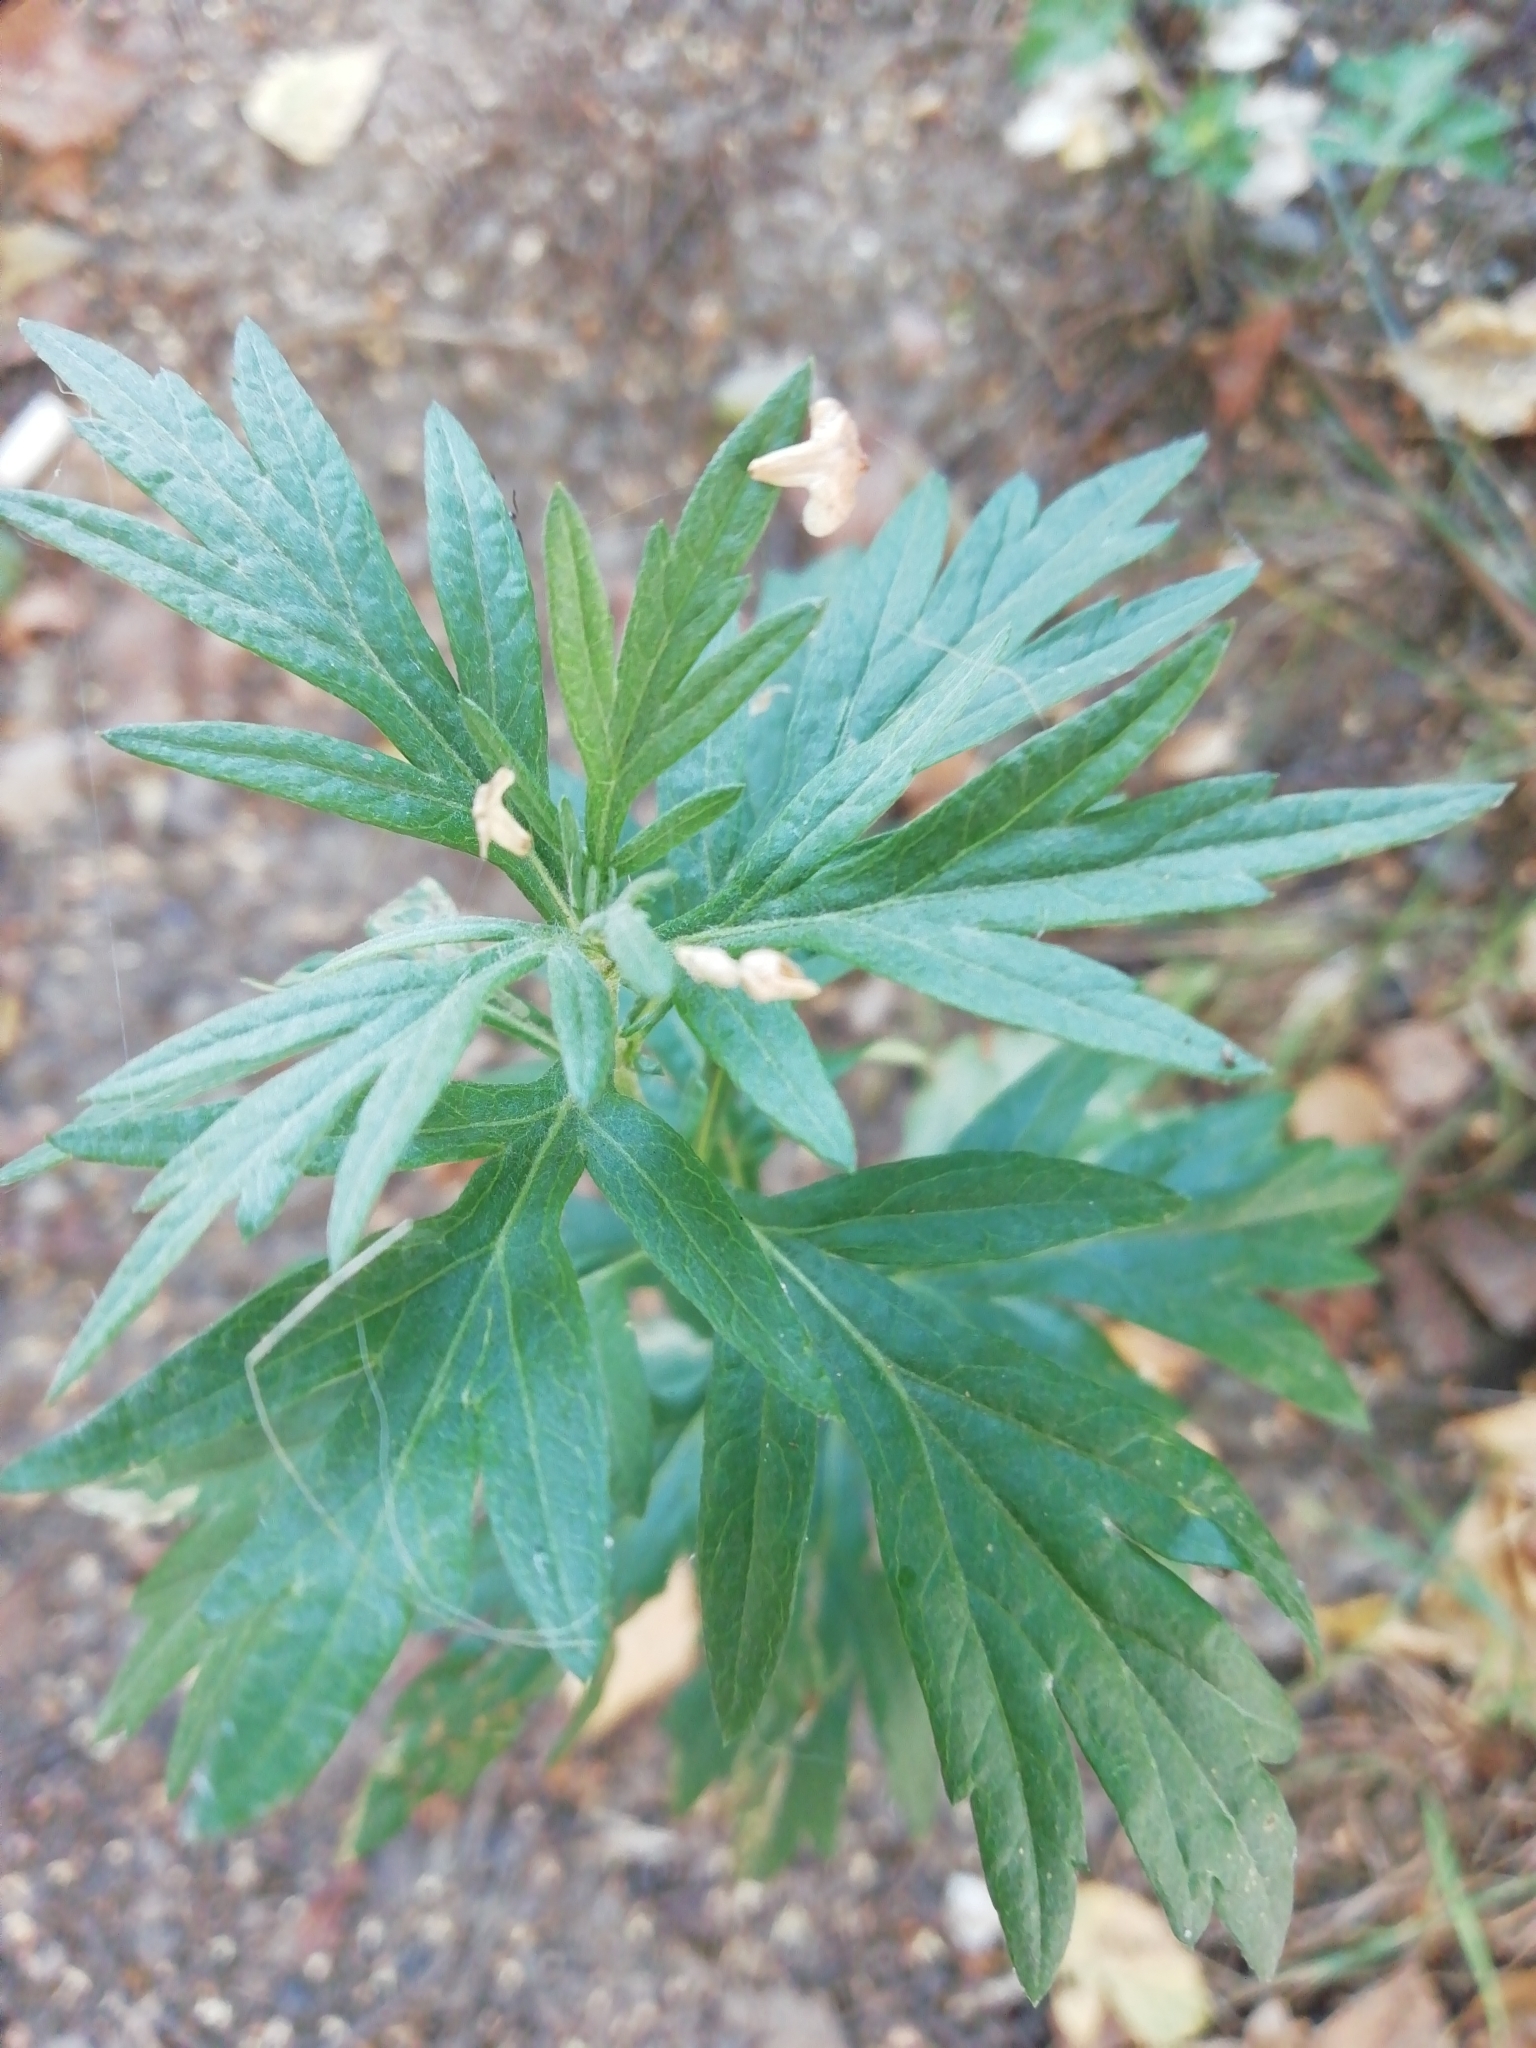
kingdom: Plantae
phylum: Tracheophyta
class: Magnoliopsida
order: Asterales
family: Asteraceae
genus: Artemisia
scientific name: Artemisia vulgaris
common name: Mugwort
